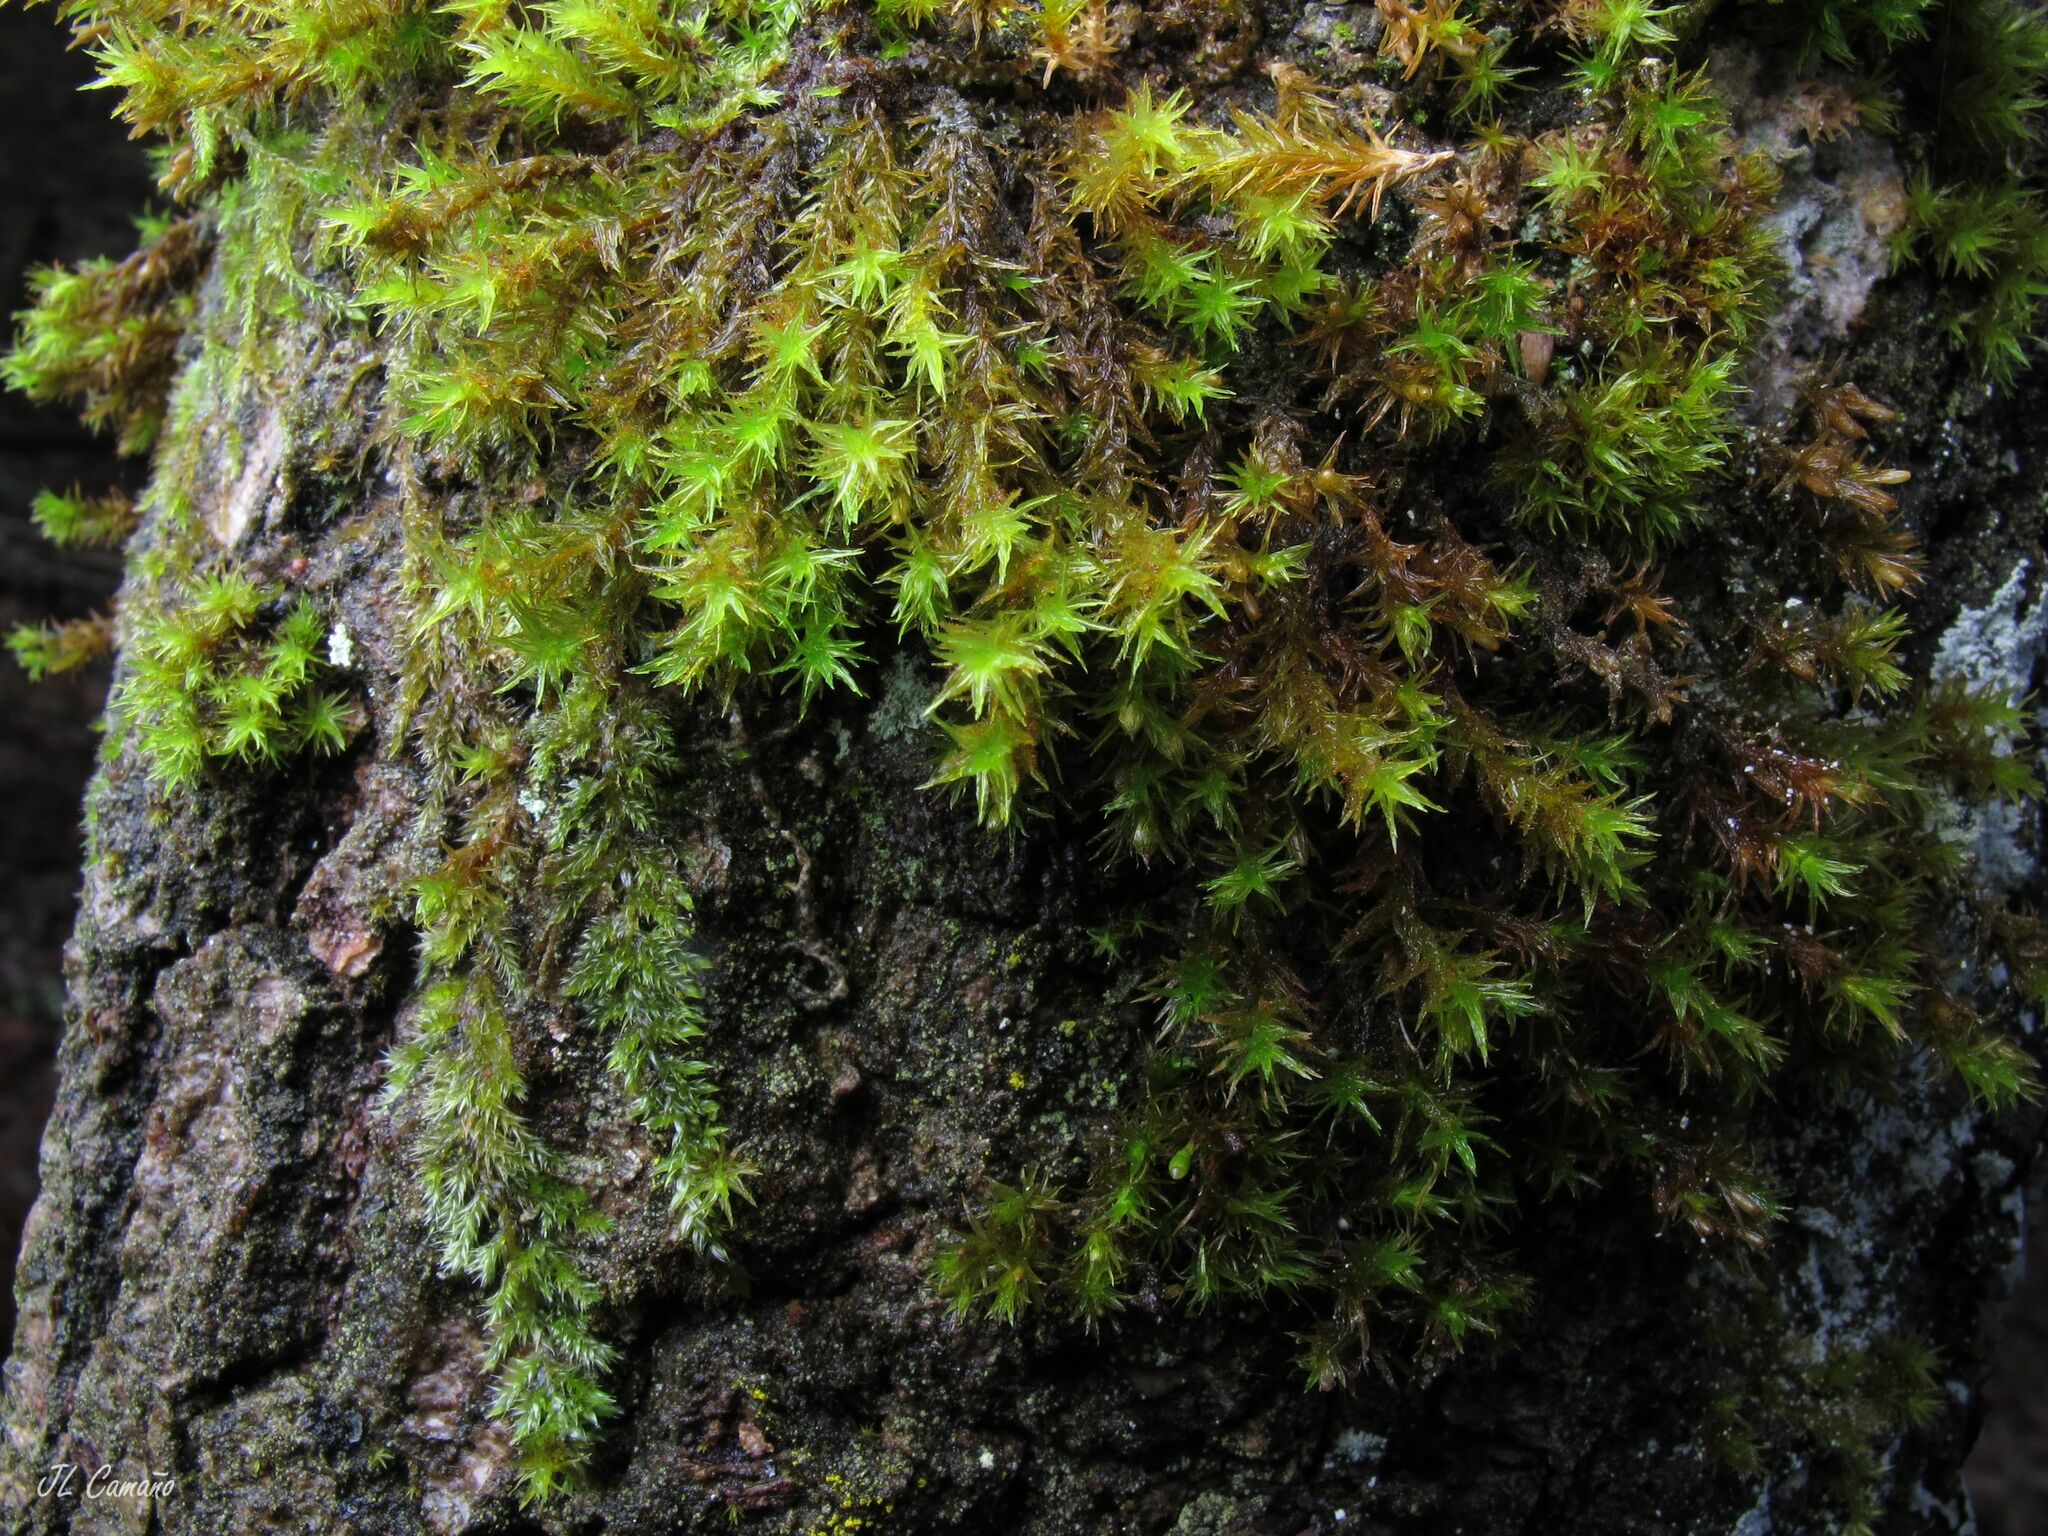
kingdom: Plantae
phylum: Bryophyta
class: Bryopsida
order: Orthotrichales
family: Orthotrichaceae
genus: Pulvigera
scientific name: Pulvigera lyellii
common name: Lyell's bristle-moss
